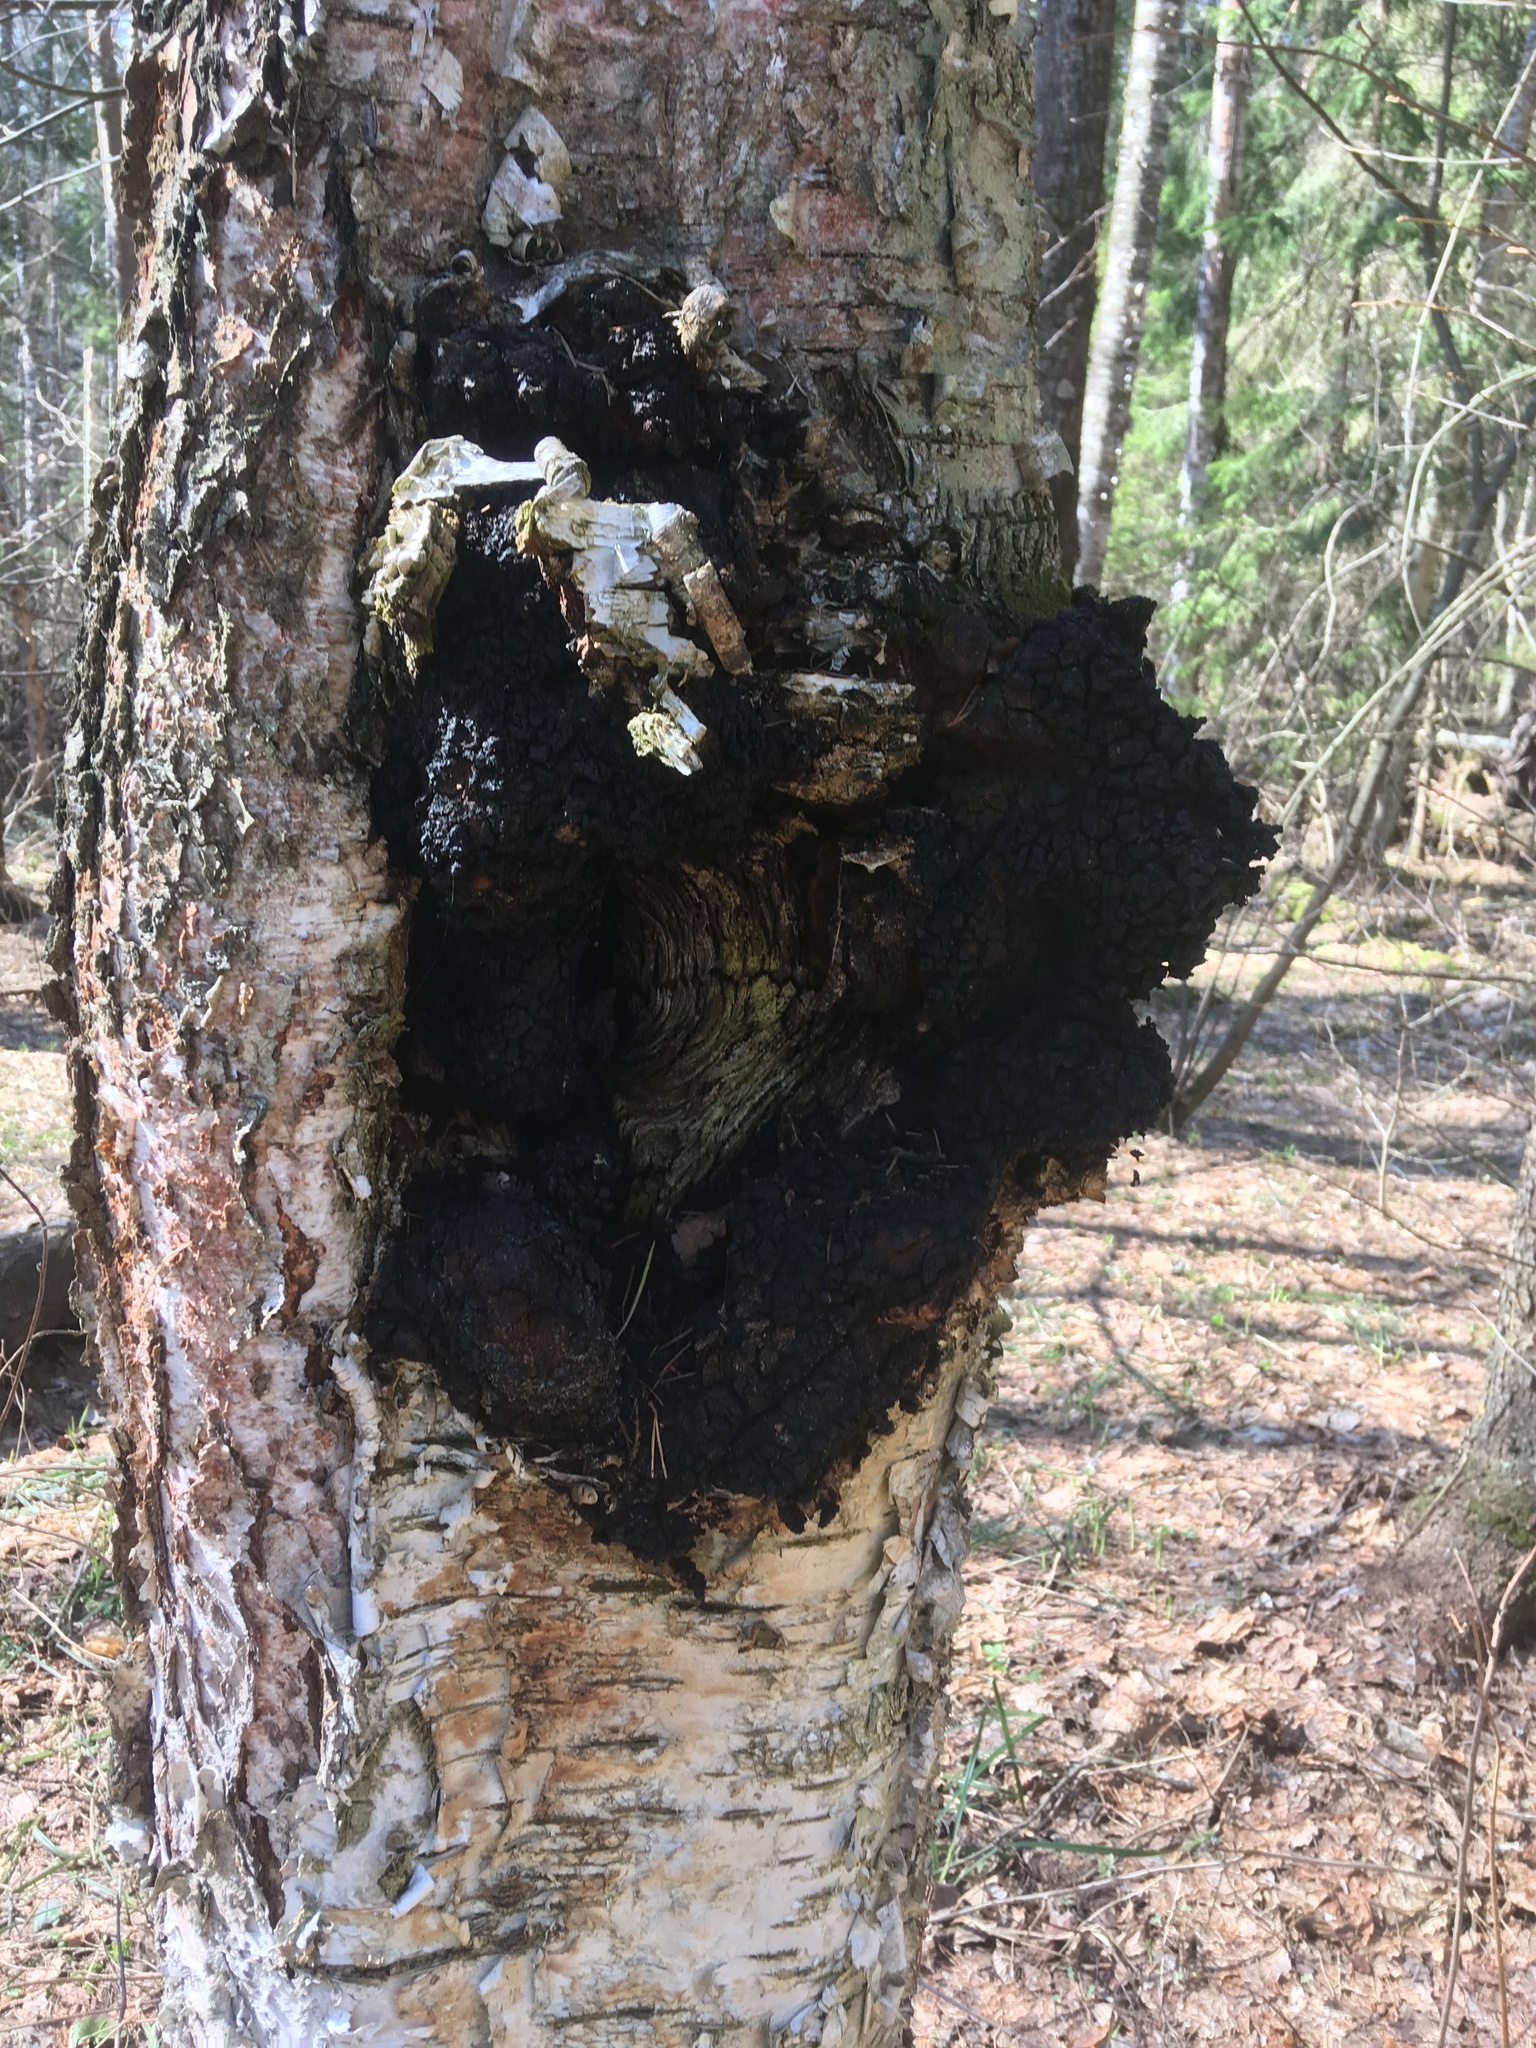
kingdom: Fungi
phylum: Basidiomycota
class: Agaricomycetes
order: Hymenochaetales
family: Hymenochaetaceae
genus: Inonotus
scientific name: Inonotus obliquus
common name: Chaga
